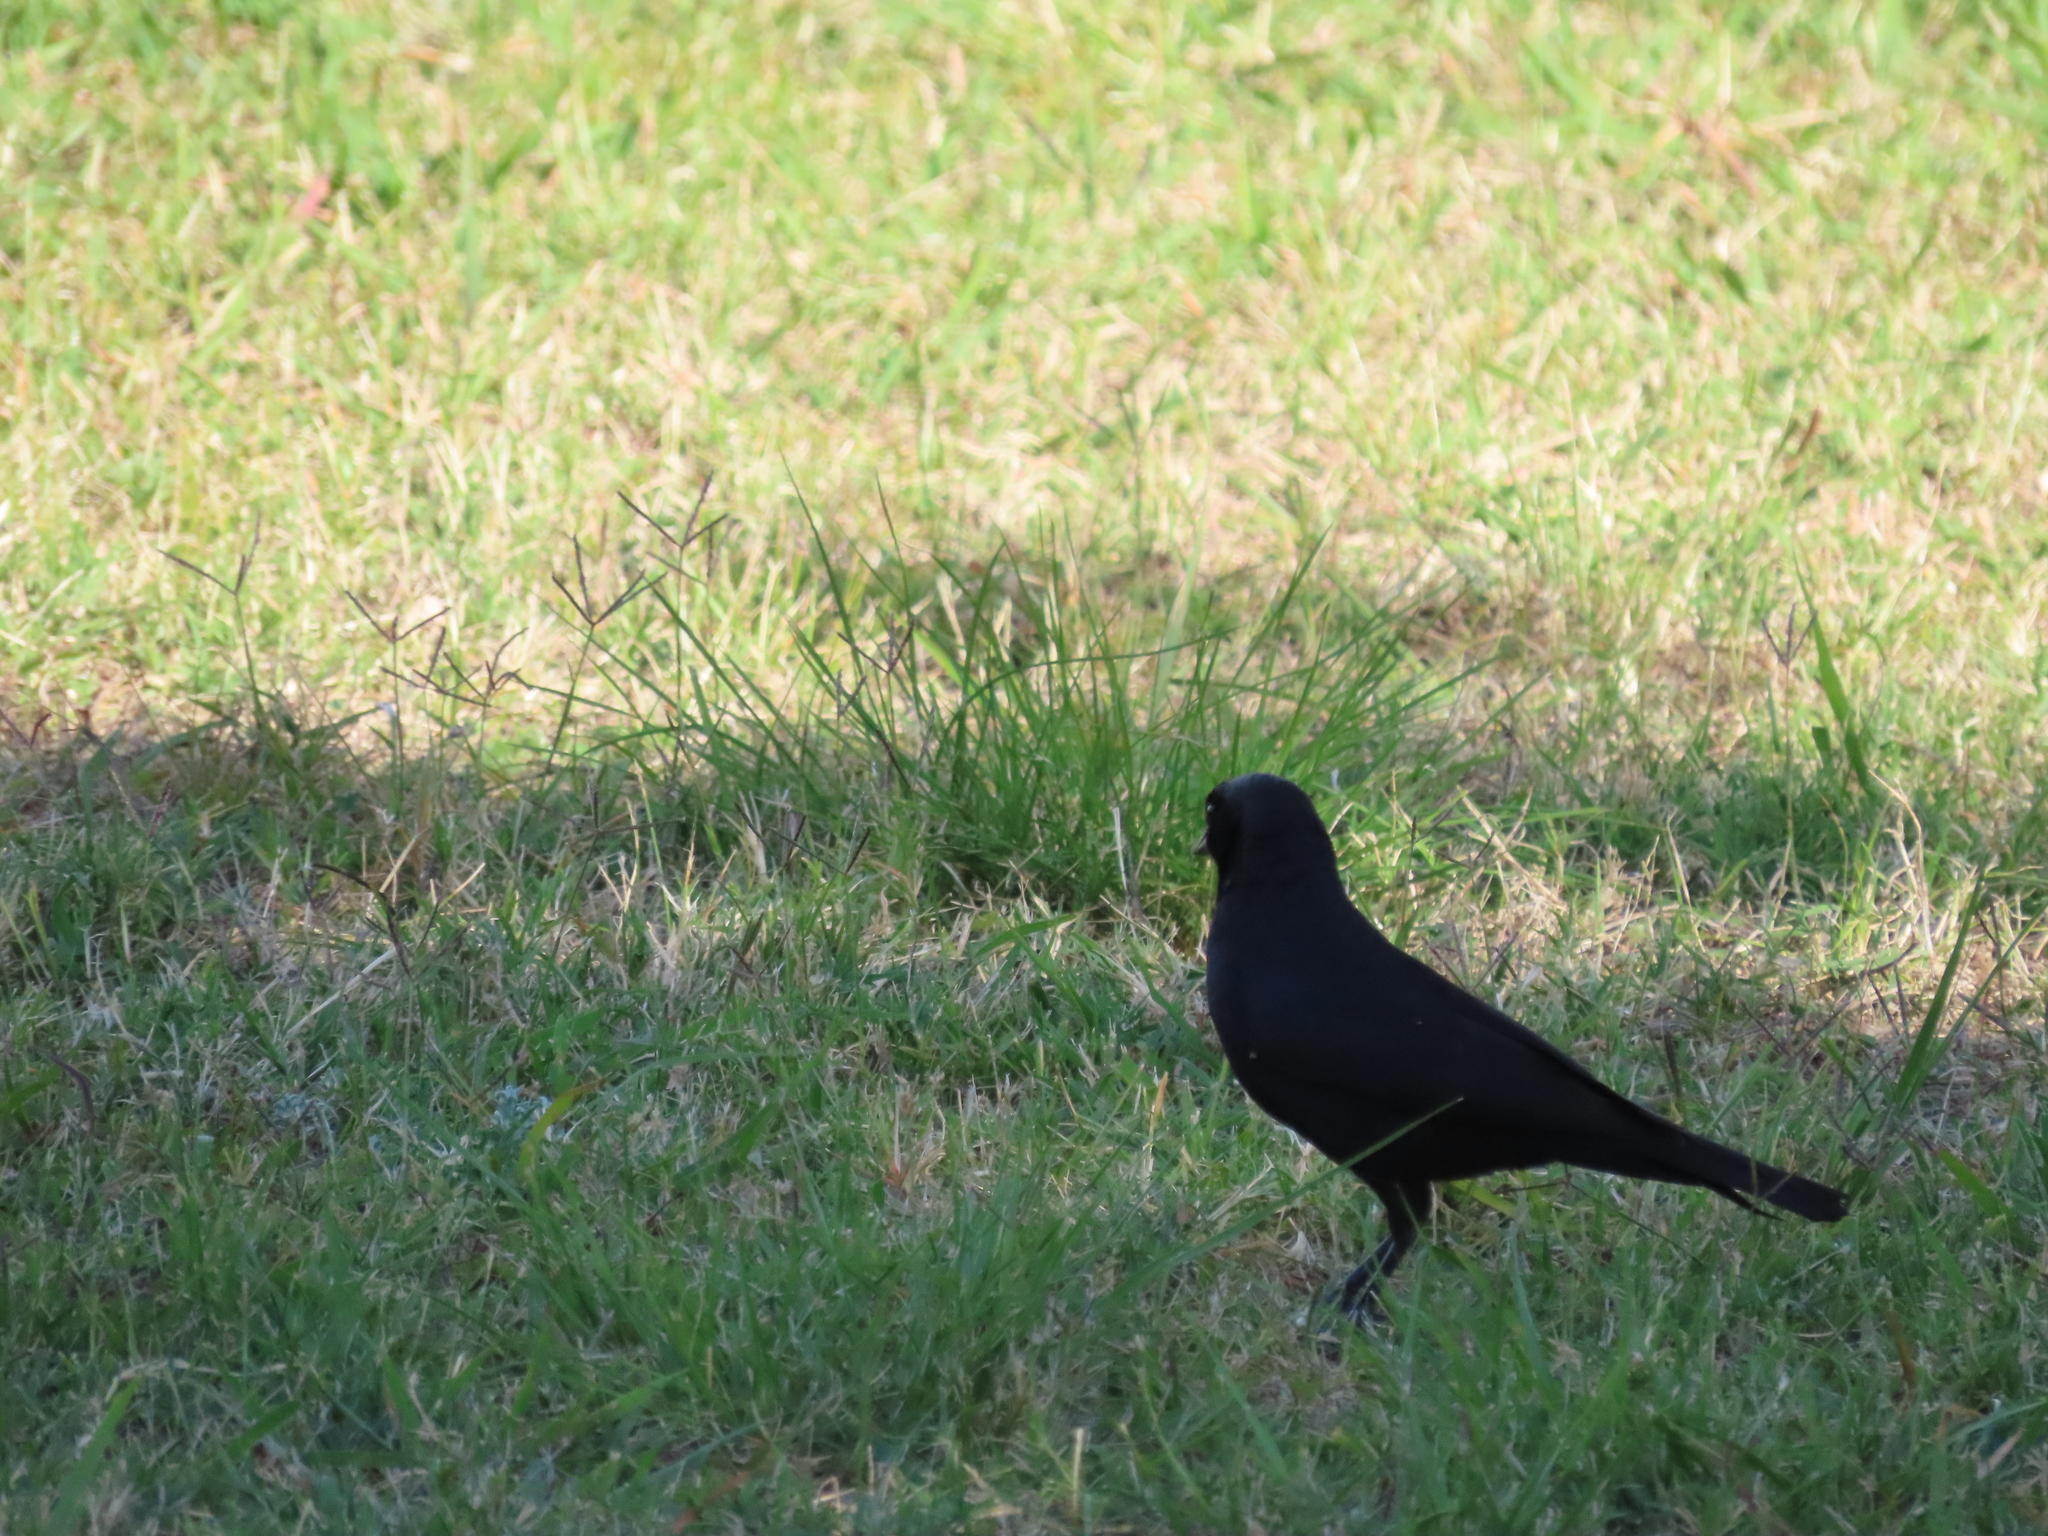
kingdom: Animalia
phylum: Chordata
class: Aves
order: Passeriformes
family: Icteridae
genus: Molothrus
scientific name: Molothrus rufoaxillaris
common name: Screaming cowbird
